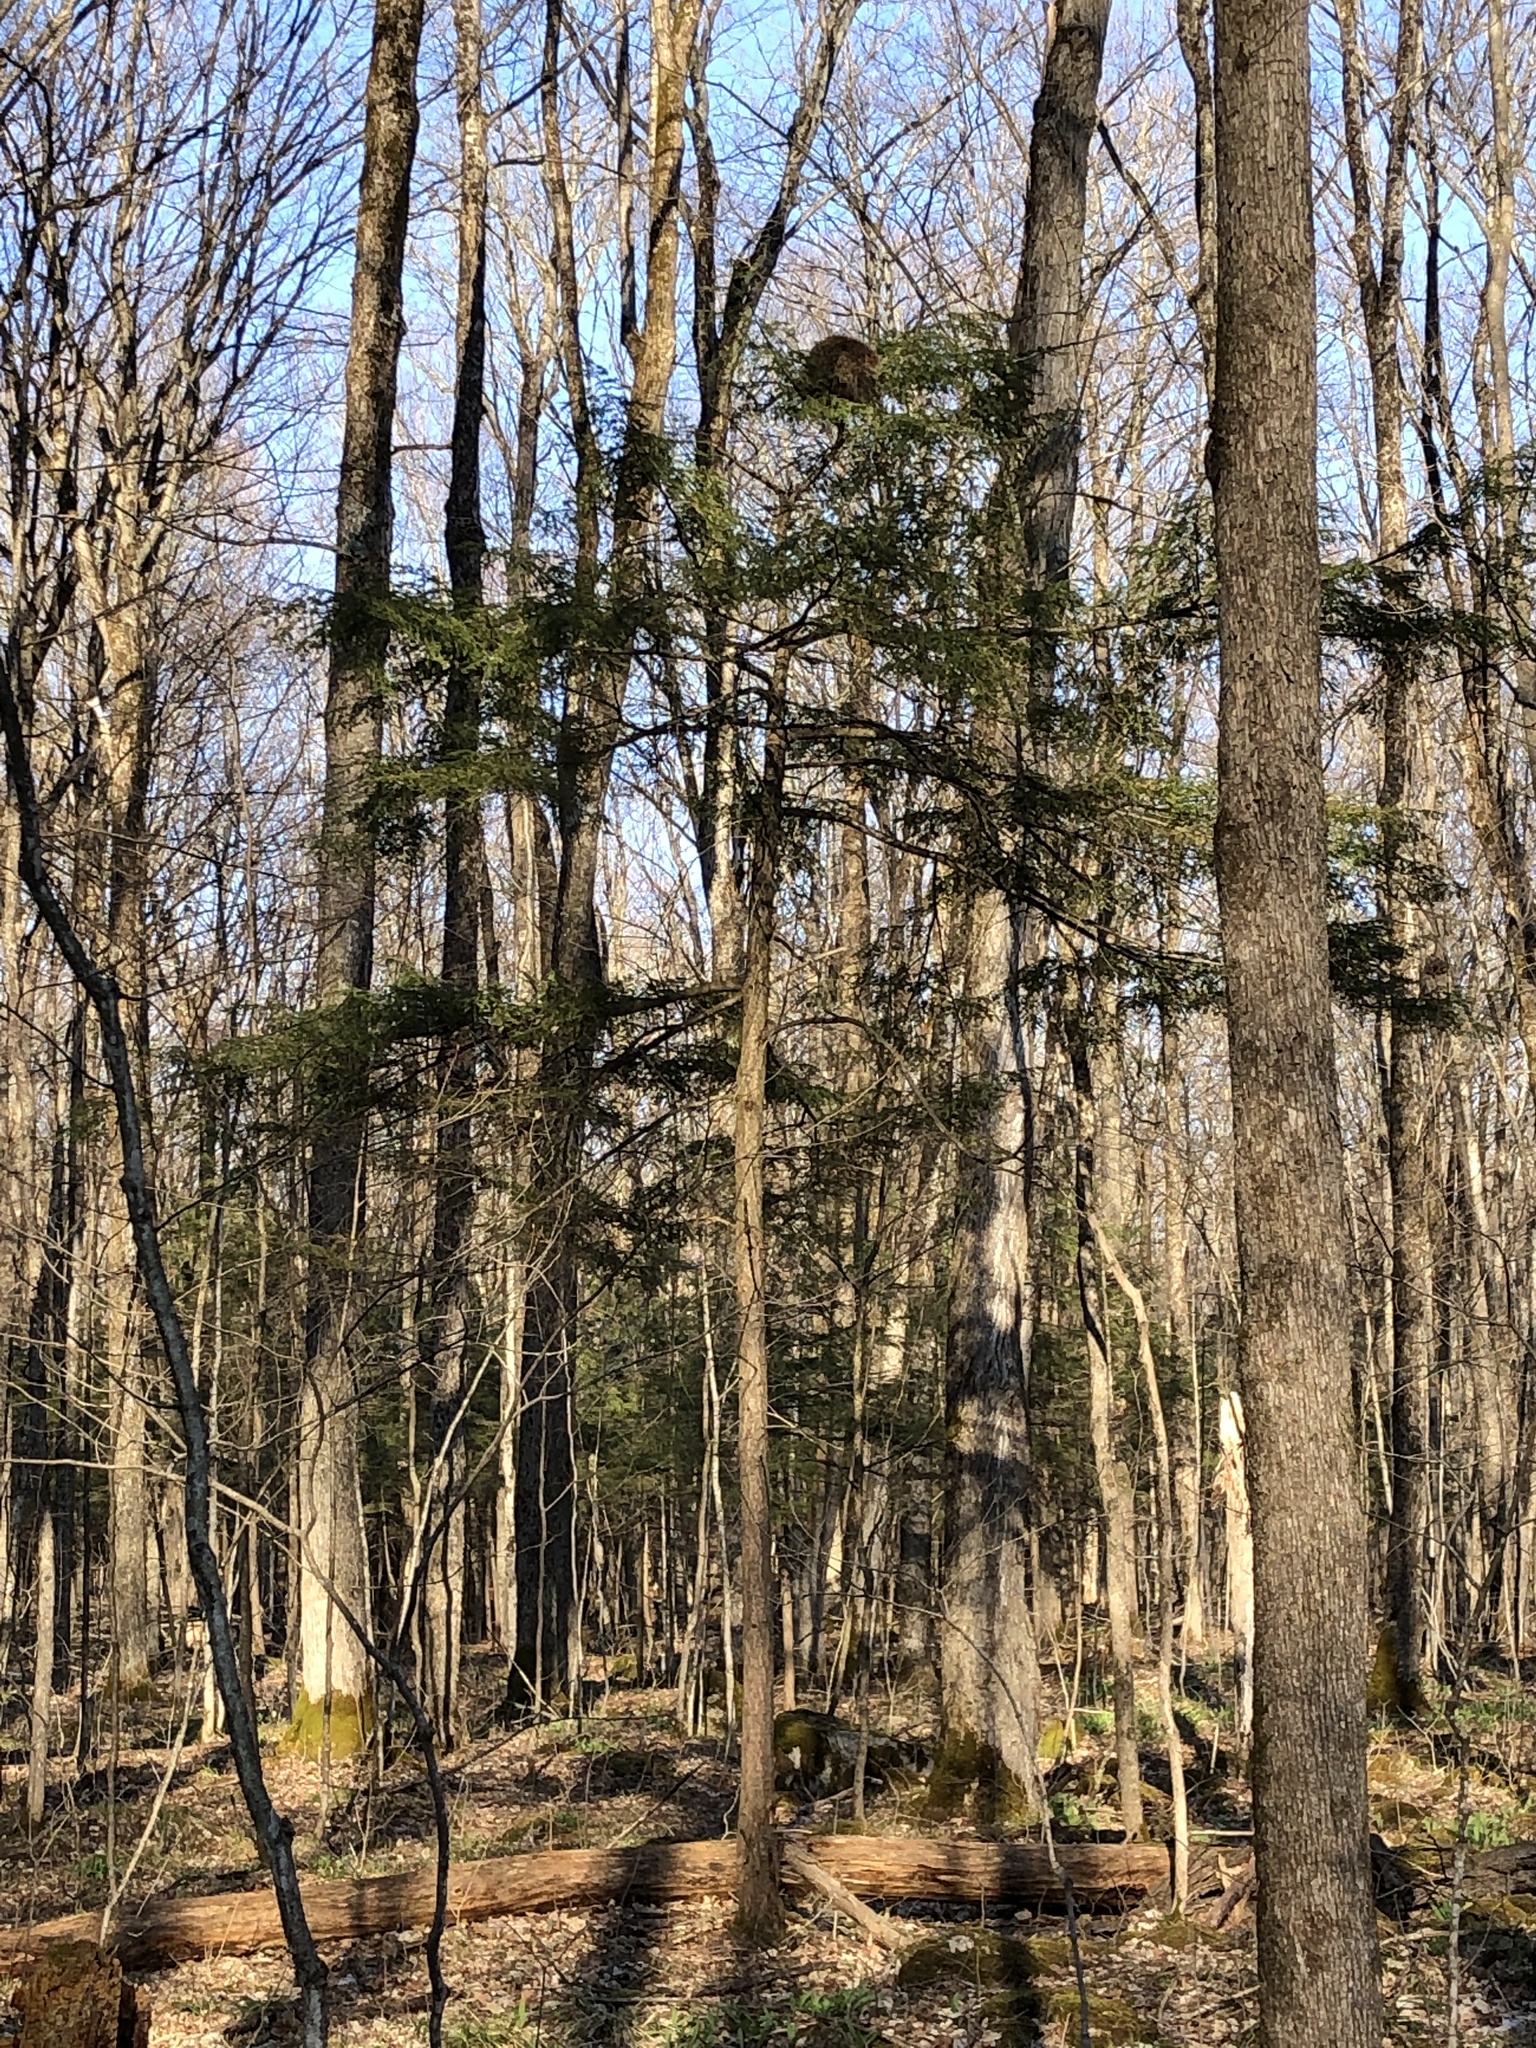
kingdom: Animalia
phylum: Chordata
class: Mammalia
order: Rodentia
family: Erethizontidae
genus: Erethizon
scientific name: Erethizon dorsatus
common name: North american porcupine
